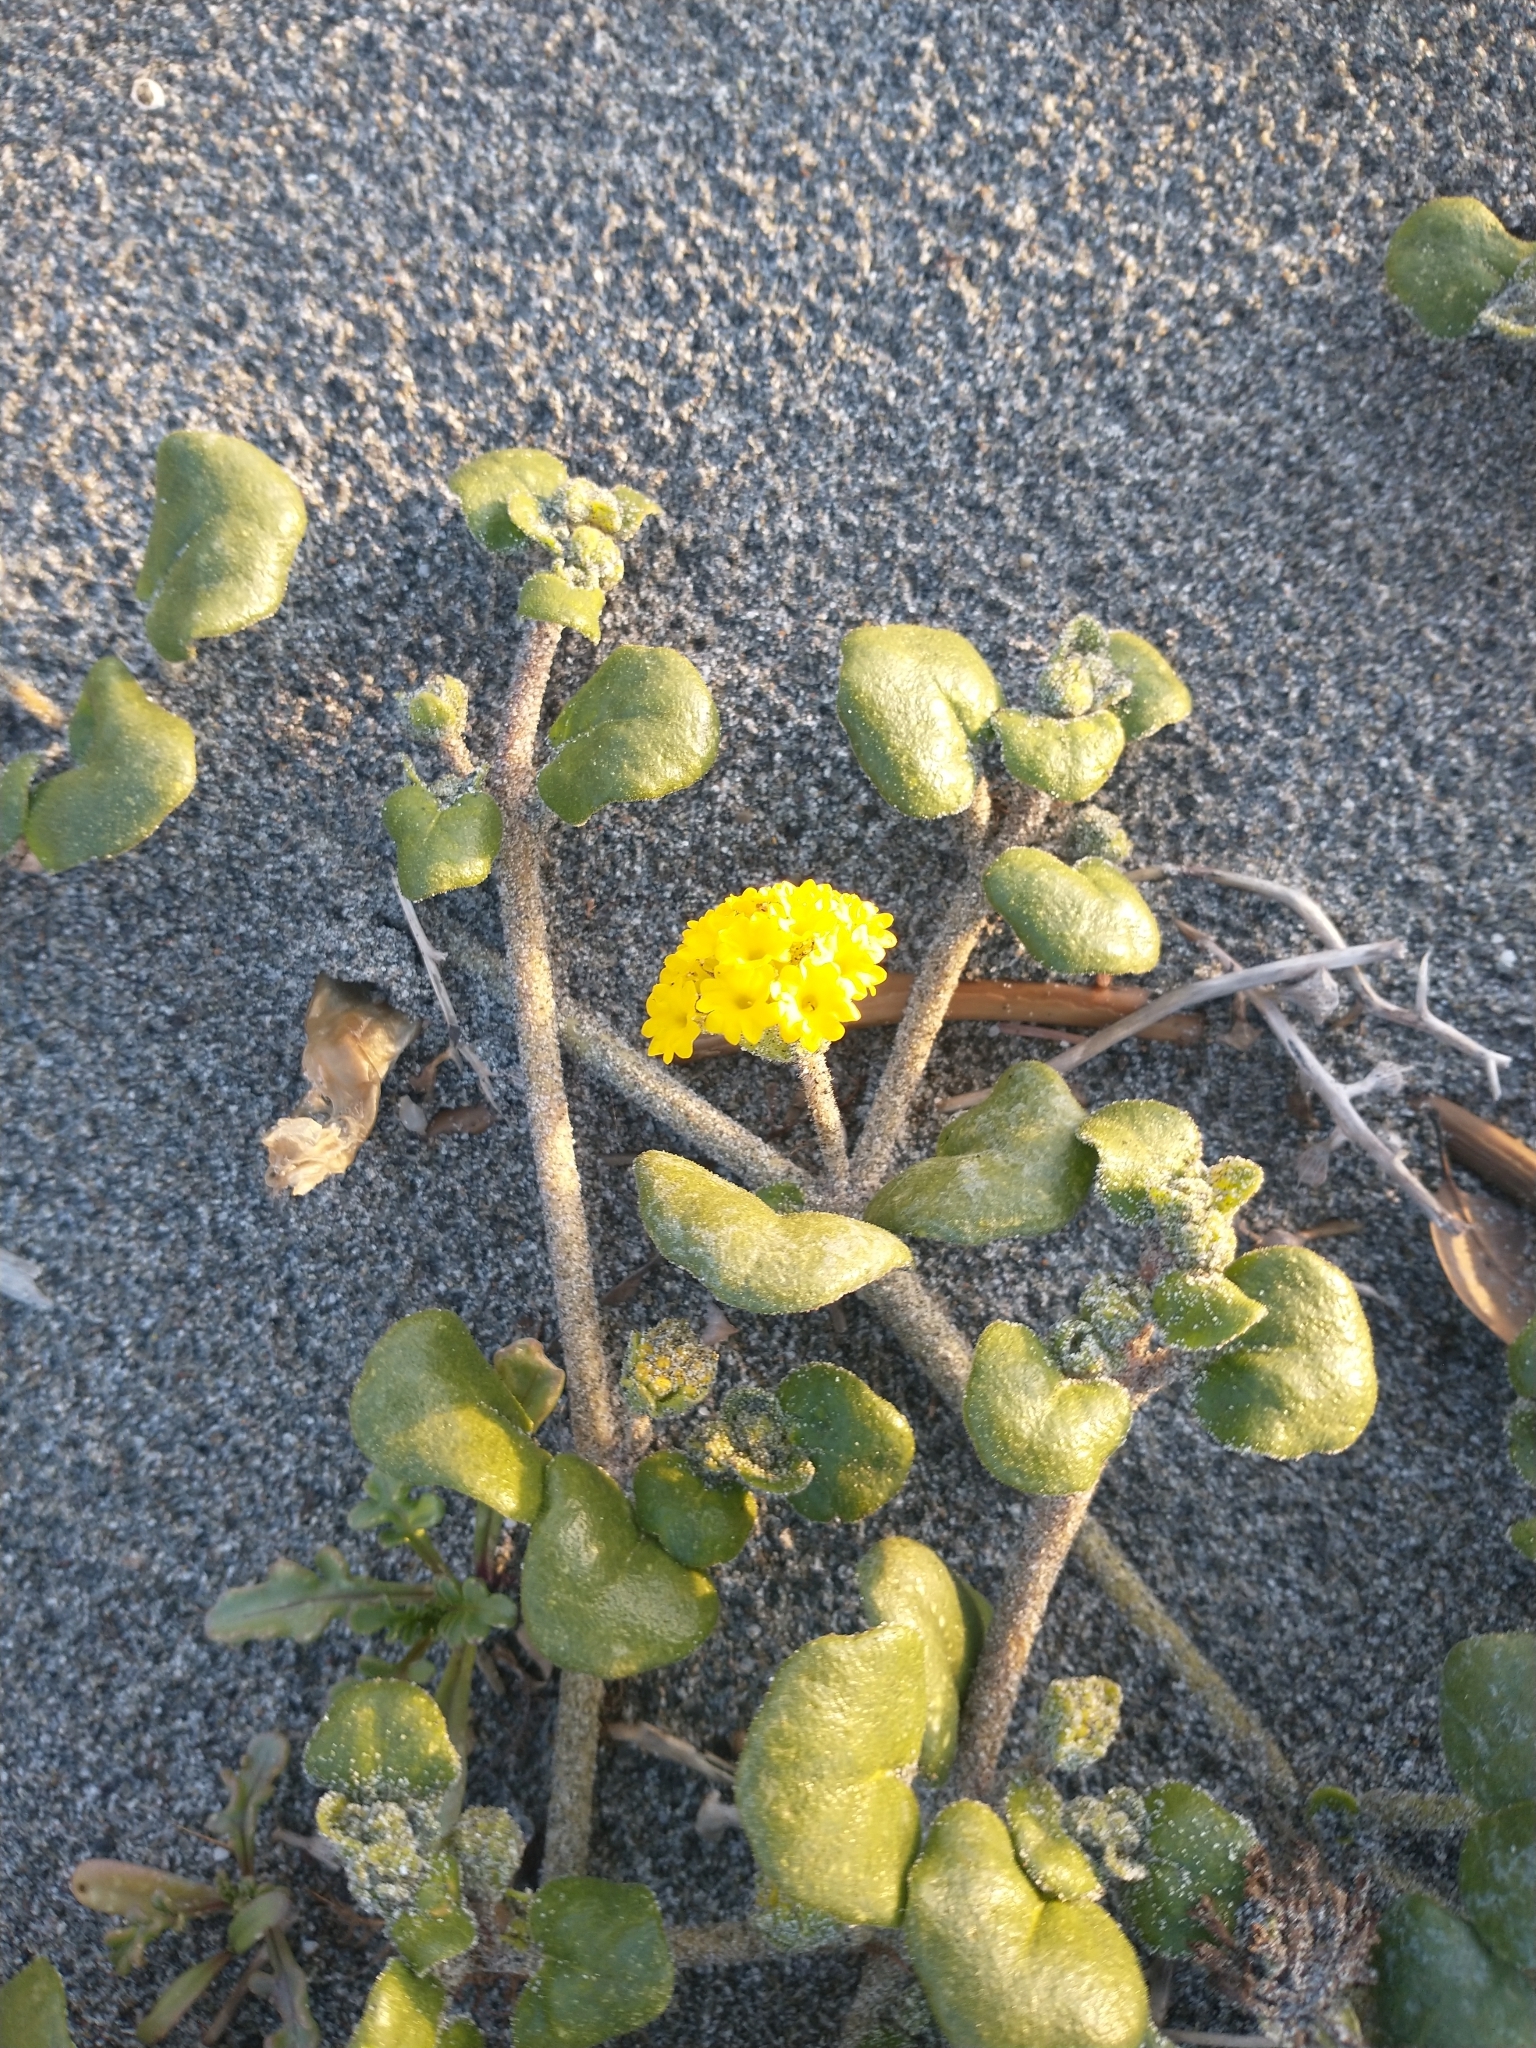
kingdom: Plantae
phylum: Tracheophyta
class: Magnoliopsida
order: Caryophyllales
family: Nyctaginaceae
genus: Abronia
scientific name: Abronia latifolia
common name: Yellow sand-verbena
